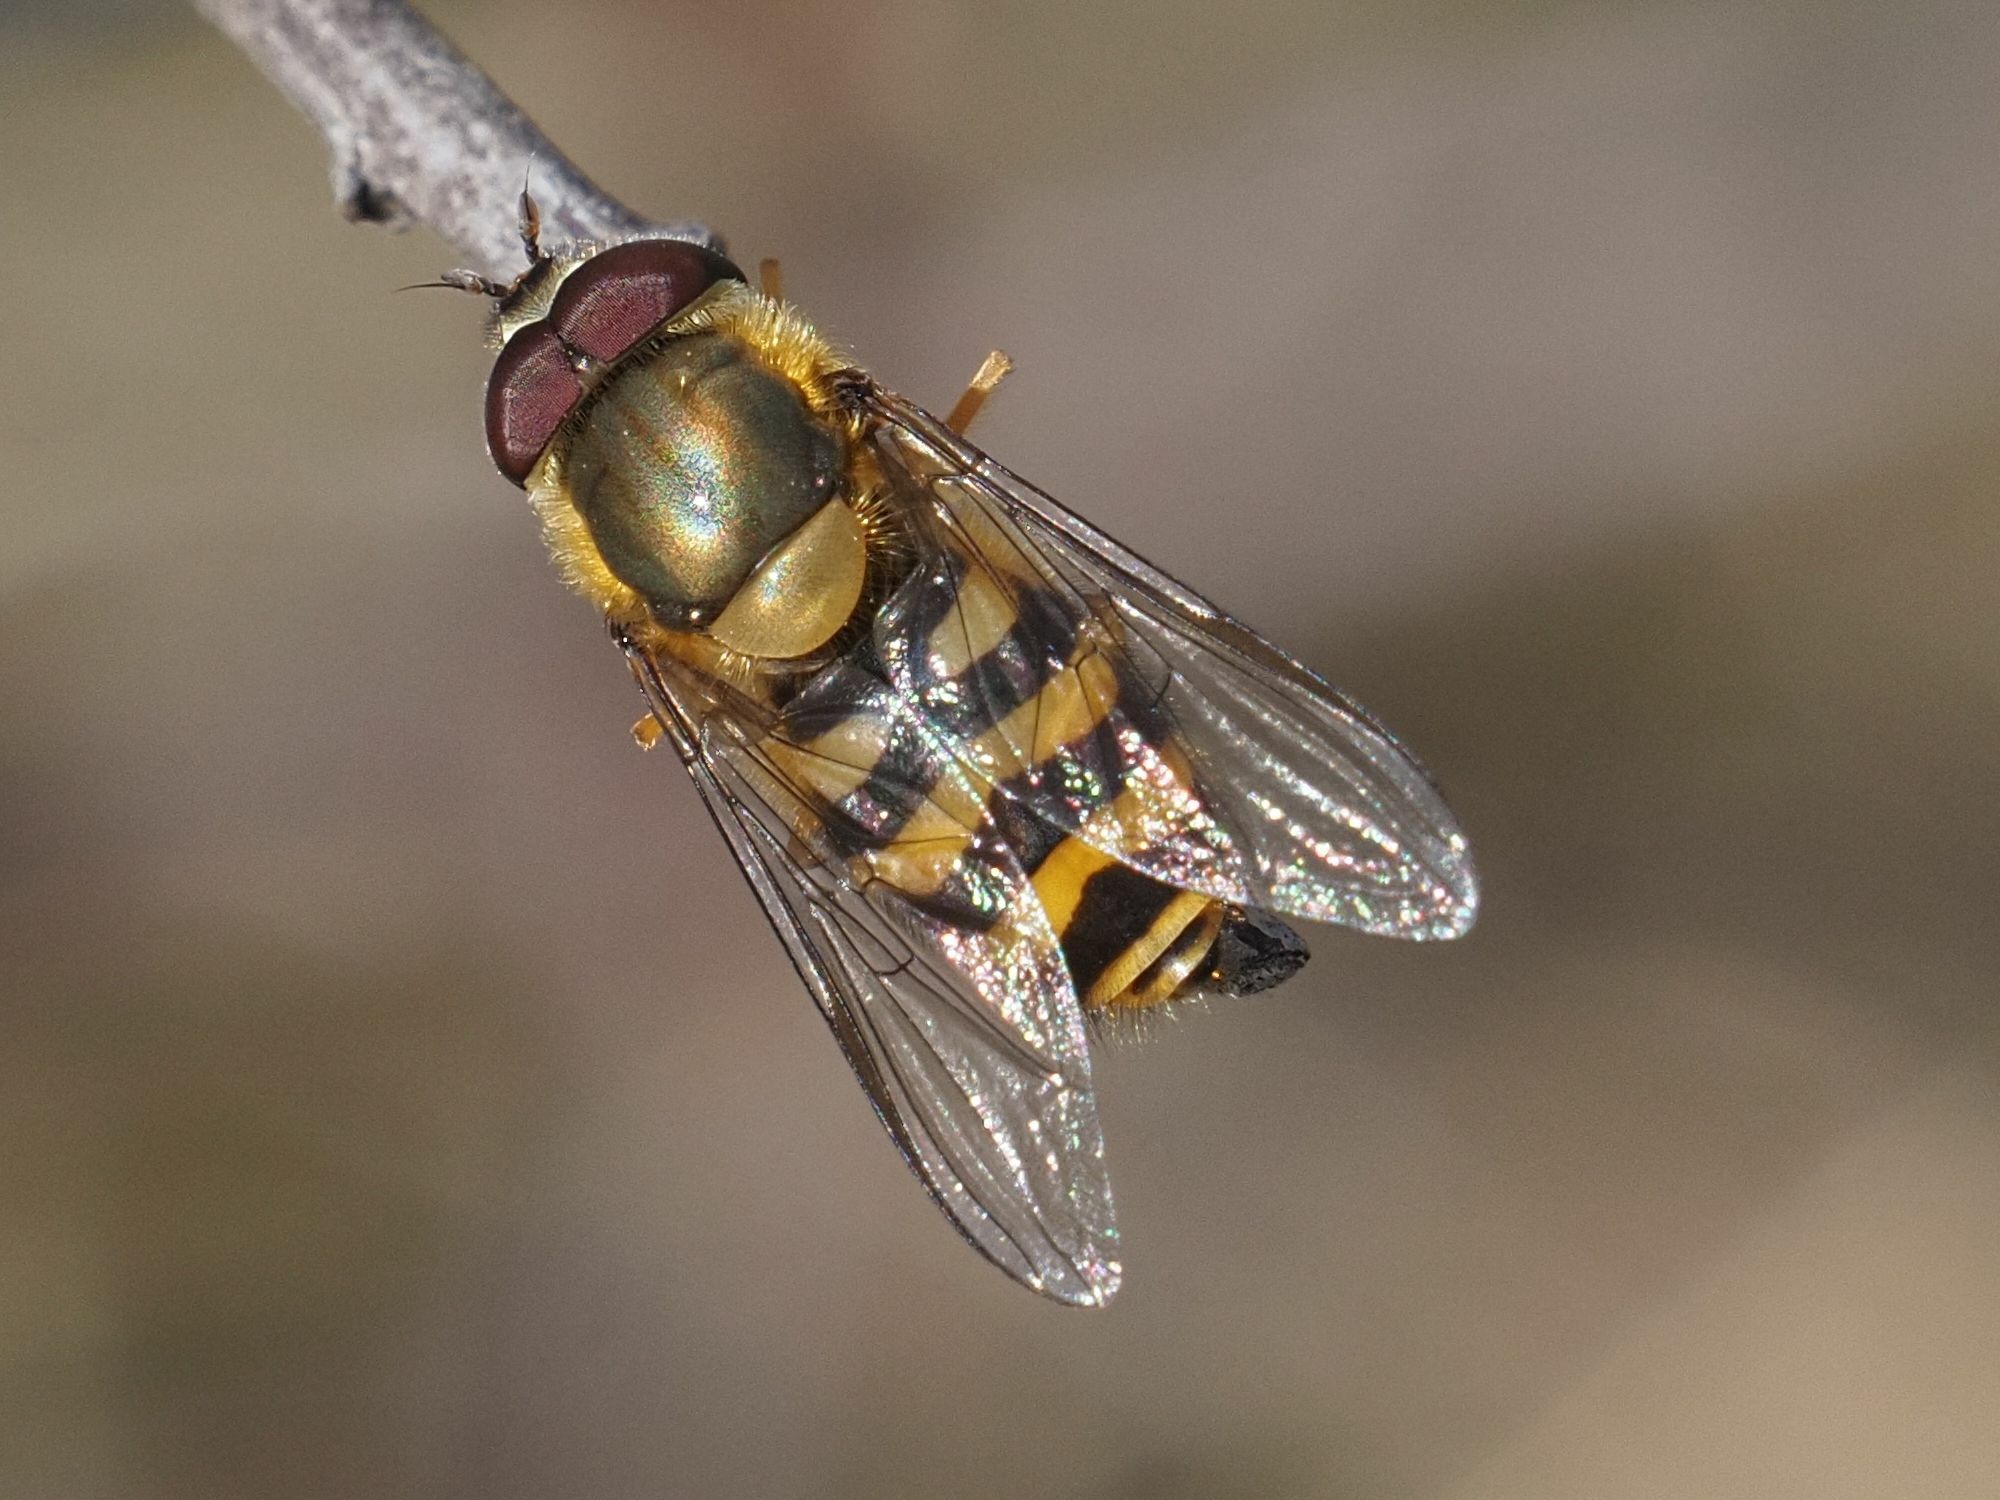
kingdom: Animalia
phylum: Arthropoda
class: Insecta
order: Diptera
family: Syrphidae
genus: Syrphus
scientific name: Syrphus torvus
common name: Hairy-eyed flower fly
